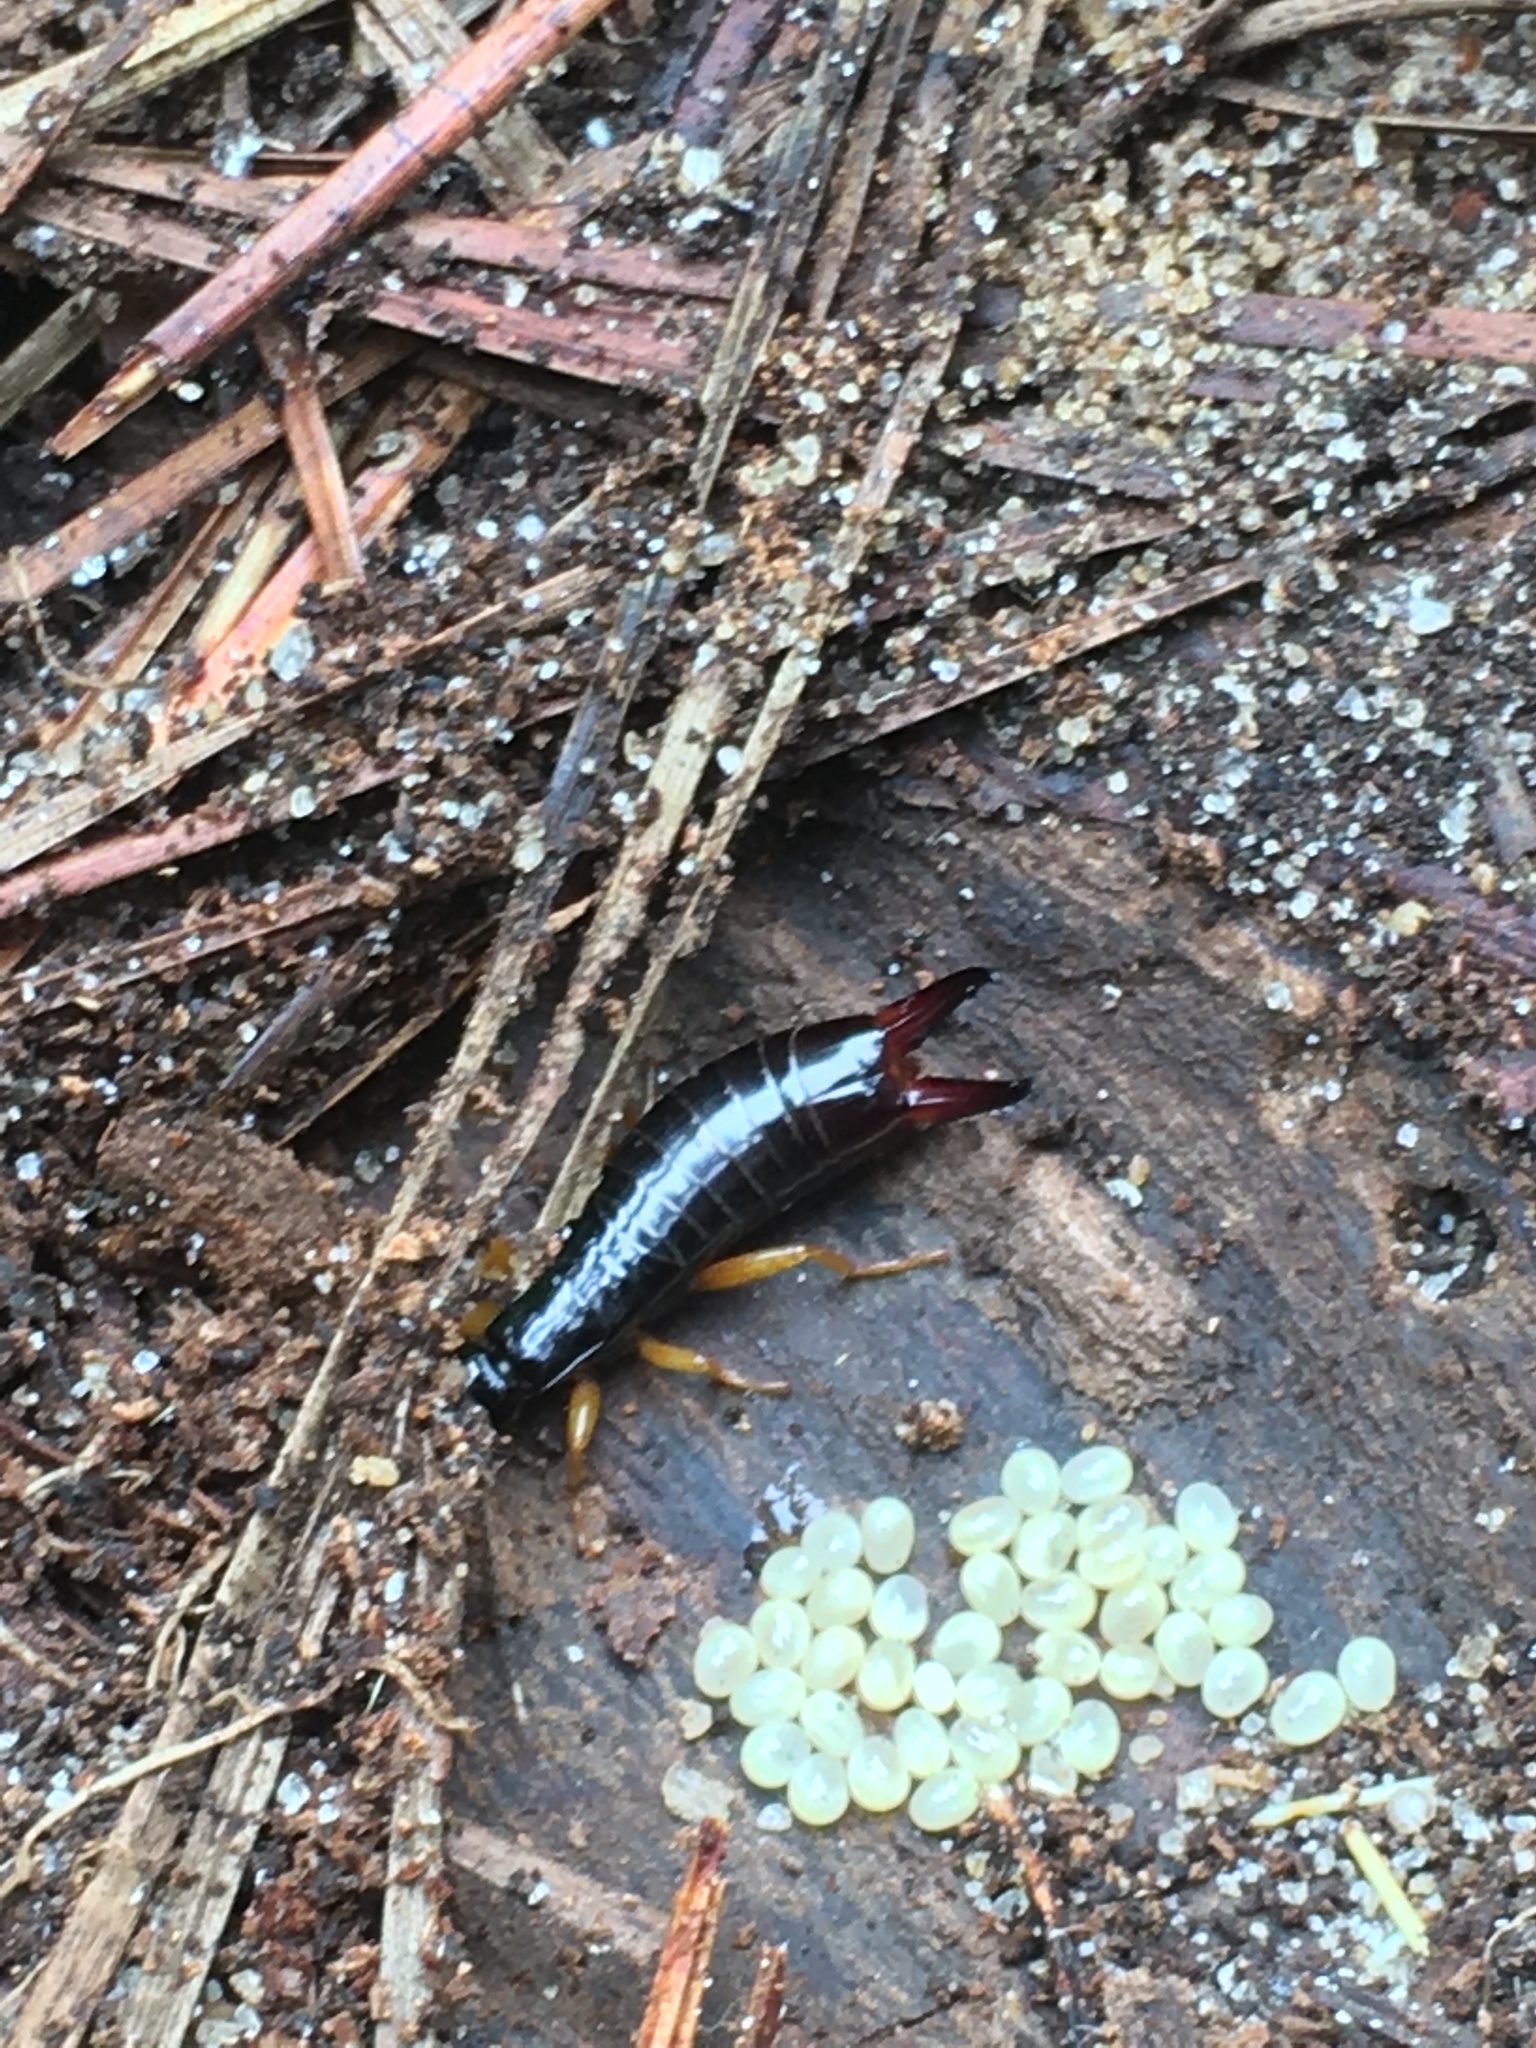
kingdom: Animalia
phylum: Arthropoda
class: Insecta
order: Dermaptera
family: Anisolabididae
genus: Euborellia
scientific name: Euborellia arcanum
